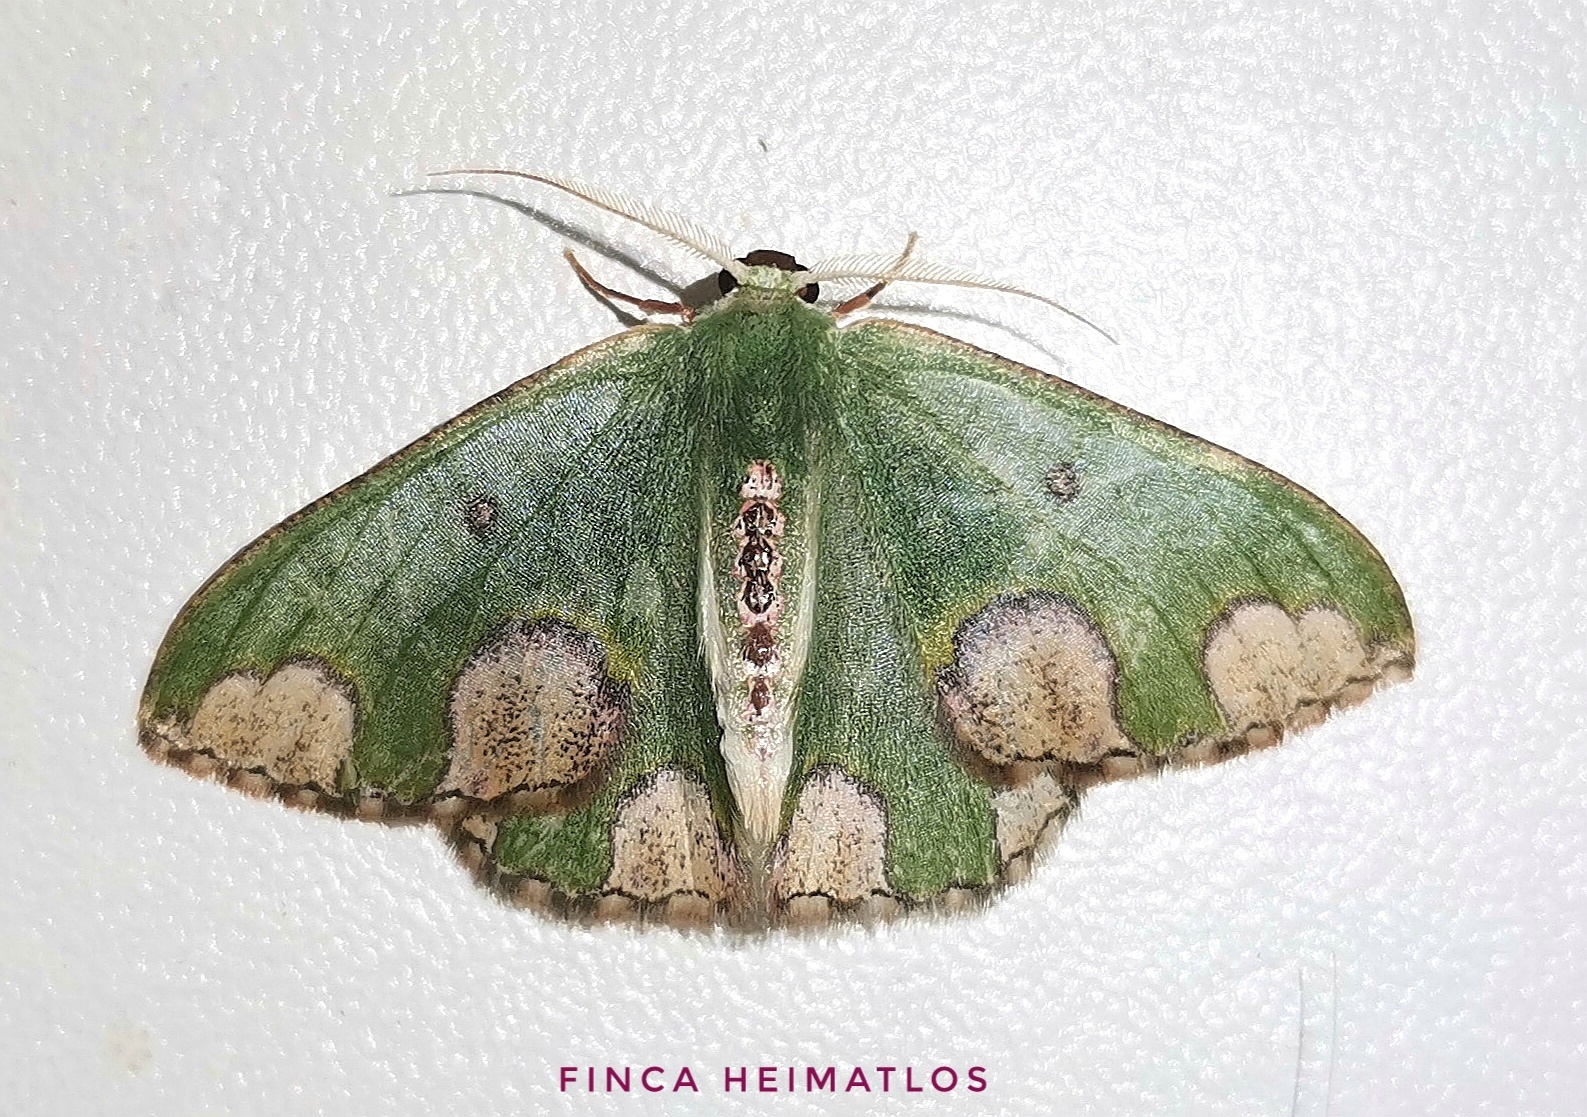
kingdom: Animalia
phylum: Arthropoda
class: Insecta
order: Lepidoptera
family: Geometridae
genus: Oospila
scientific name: Oospila carnelunata
